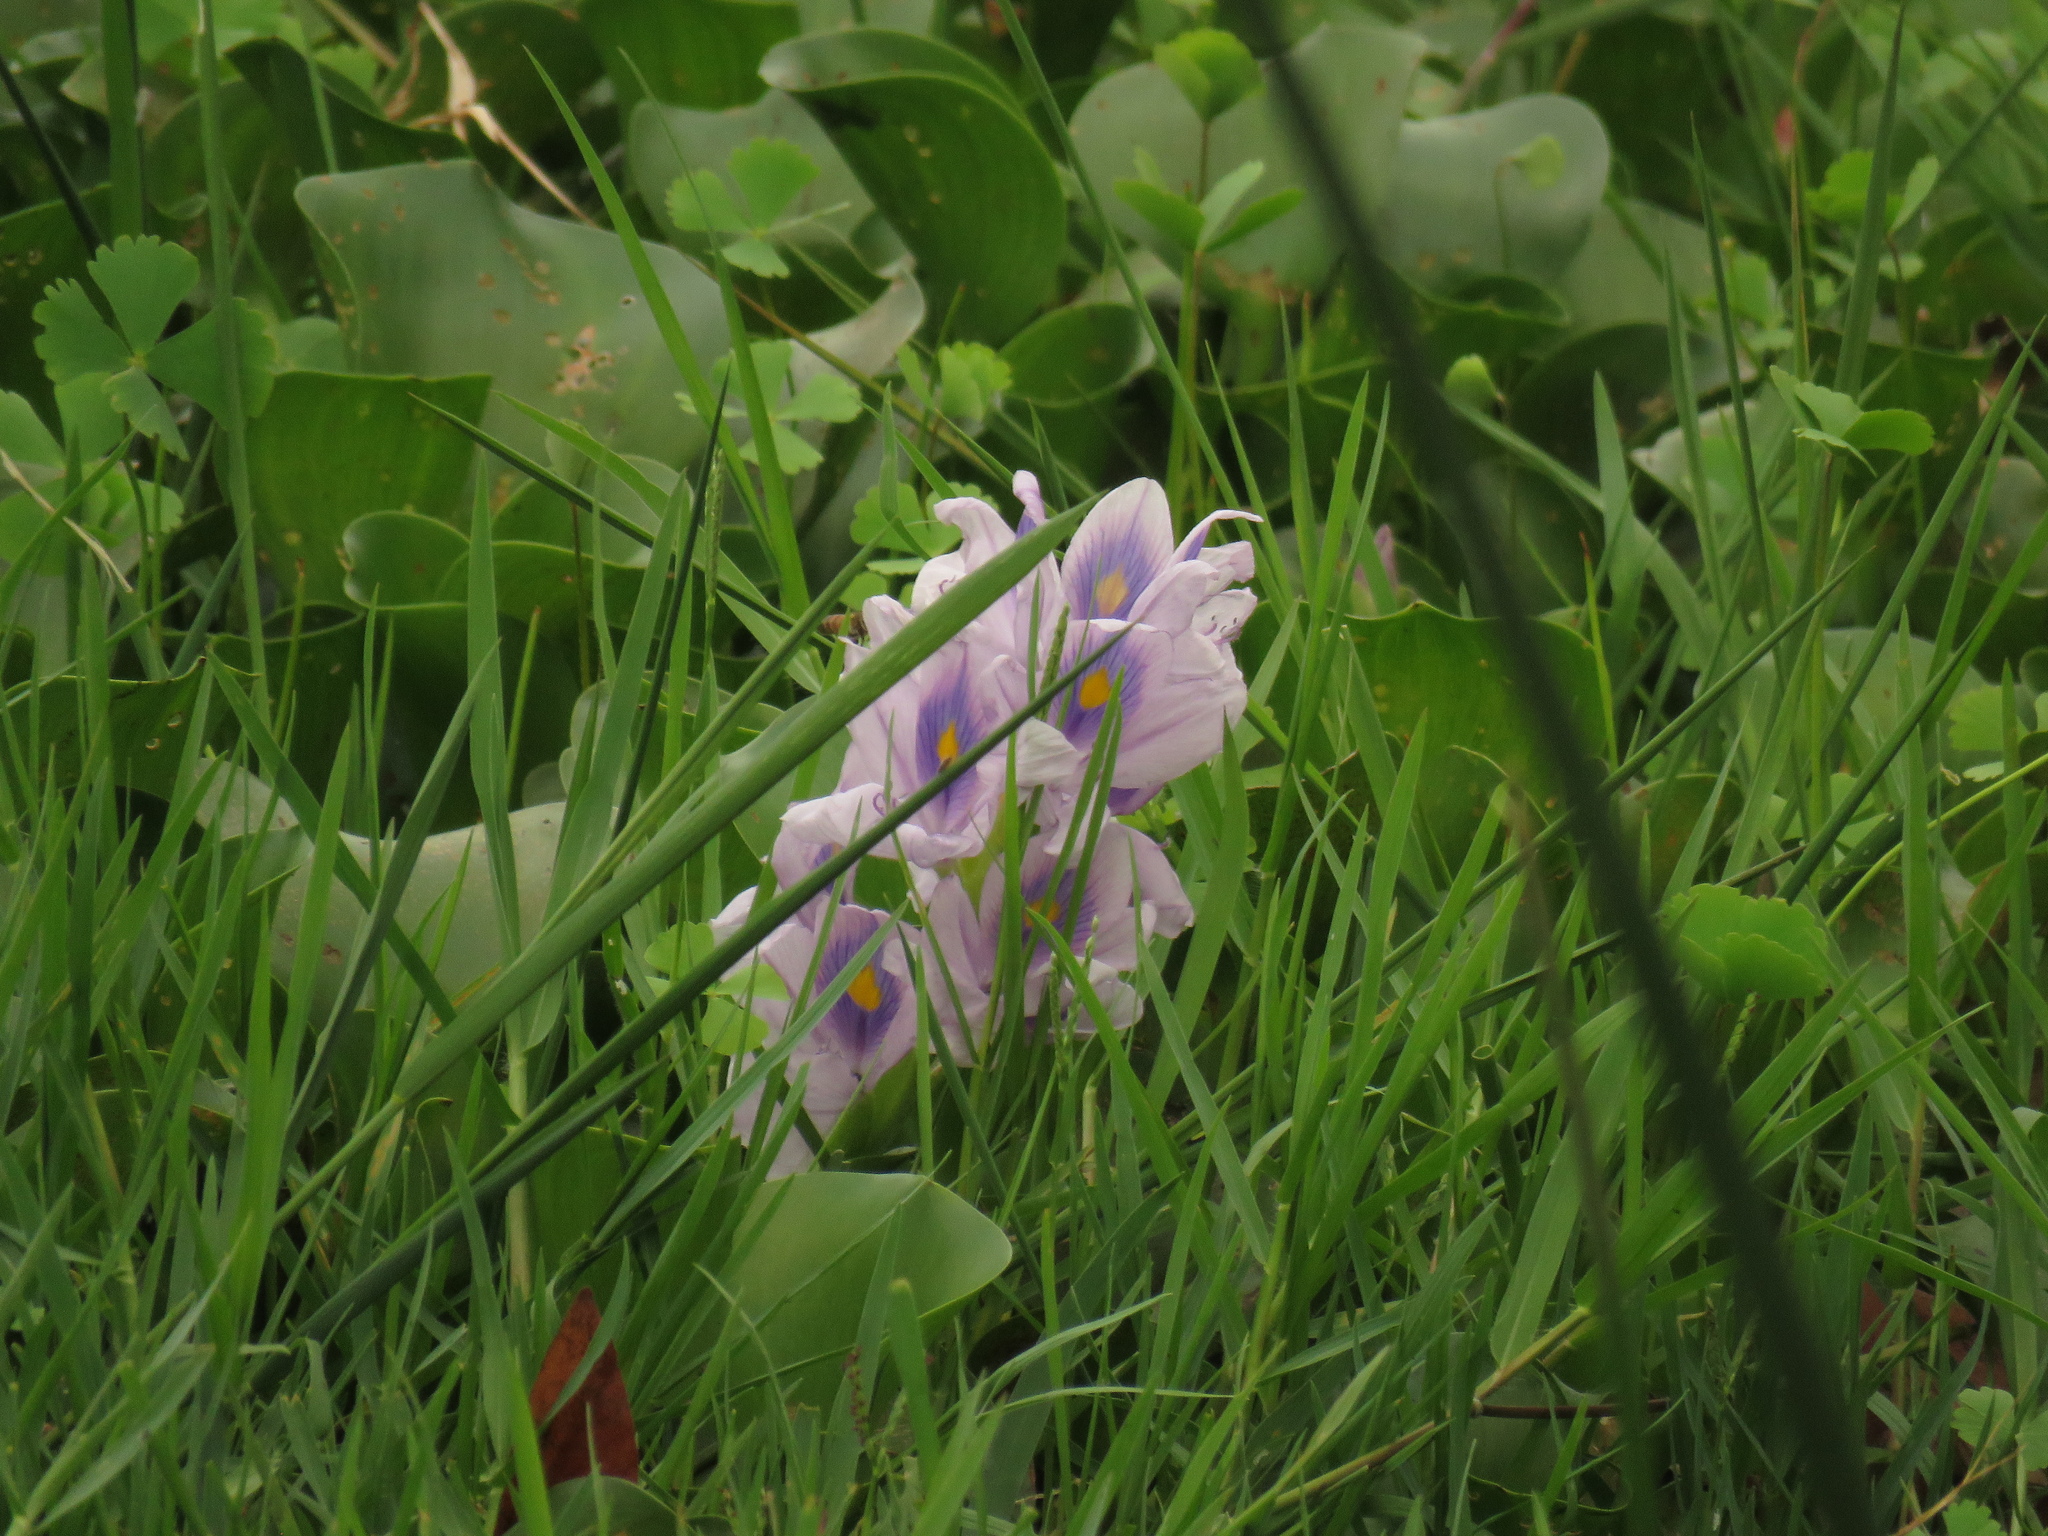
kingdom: Plantae
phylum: Tracheophyta
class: Liliopsida
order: Commelinales
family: Pontederiaceae
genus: Pontederia
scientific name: Pontederia crassipes
